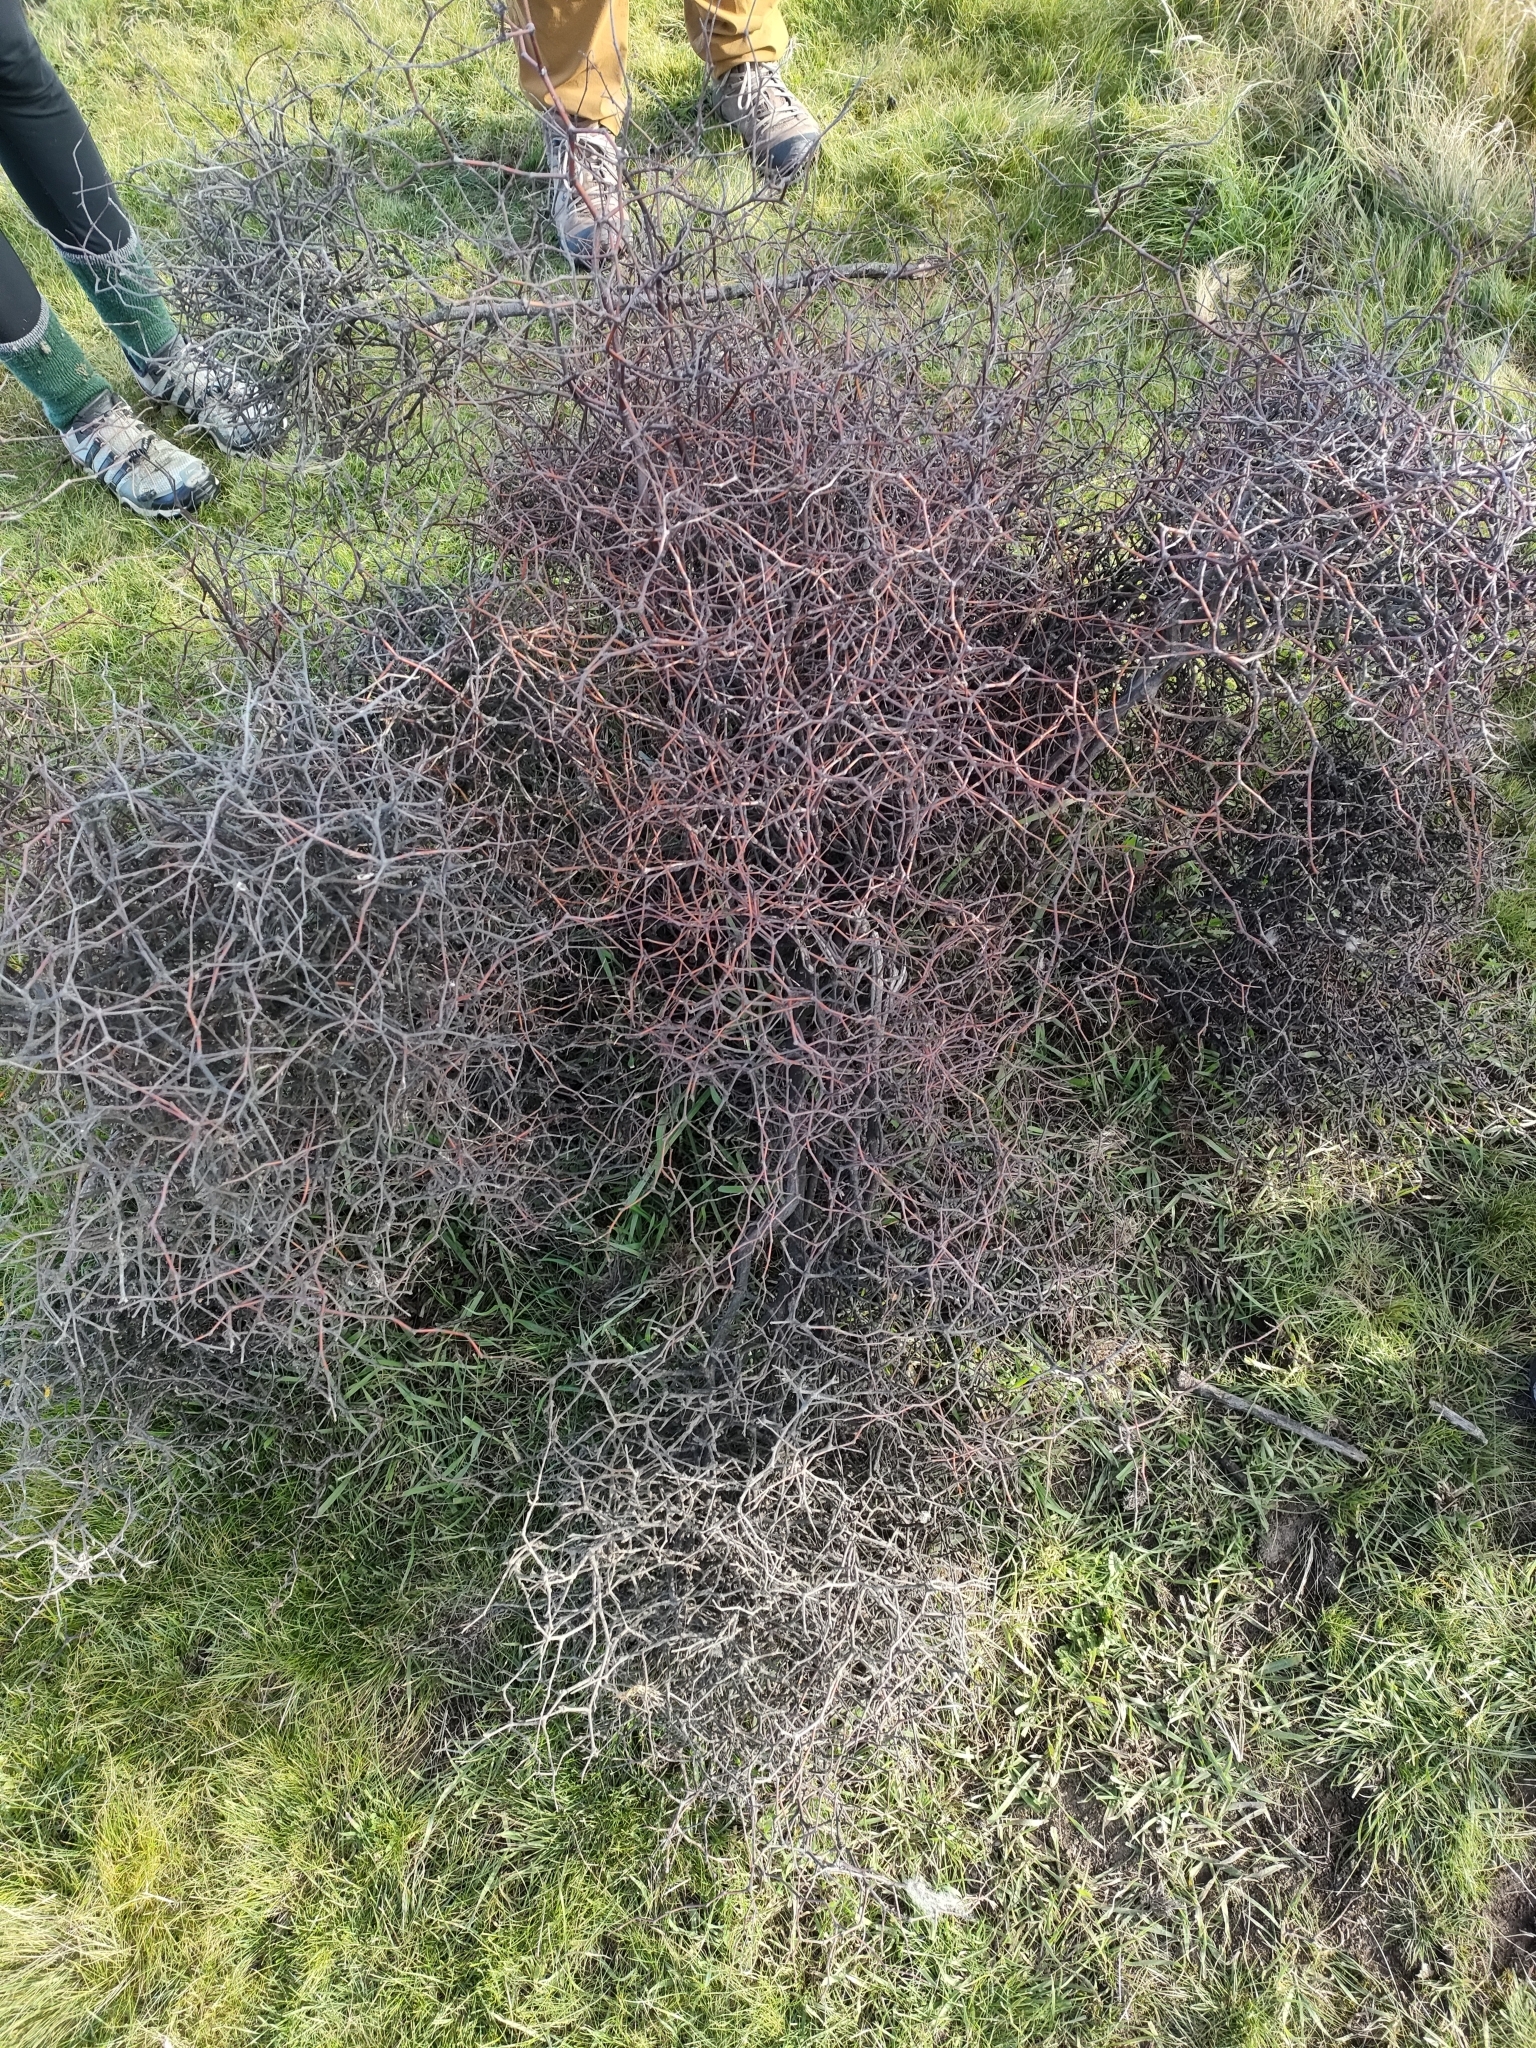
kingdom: Plantae
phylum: Tracheophyta
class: Magnoliopsida
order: Caryophyllales
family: Polygonaceae
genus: Muehlenbeckia
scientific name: Muehlenbeckia astonii
